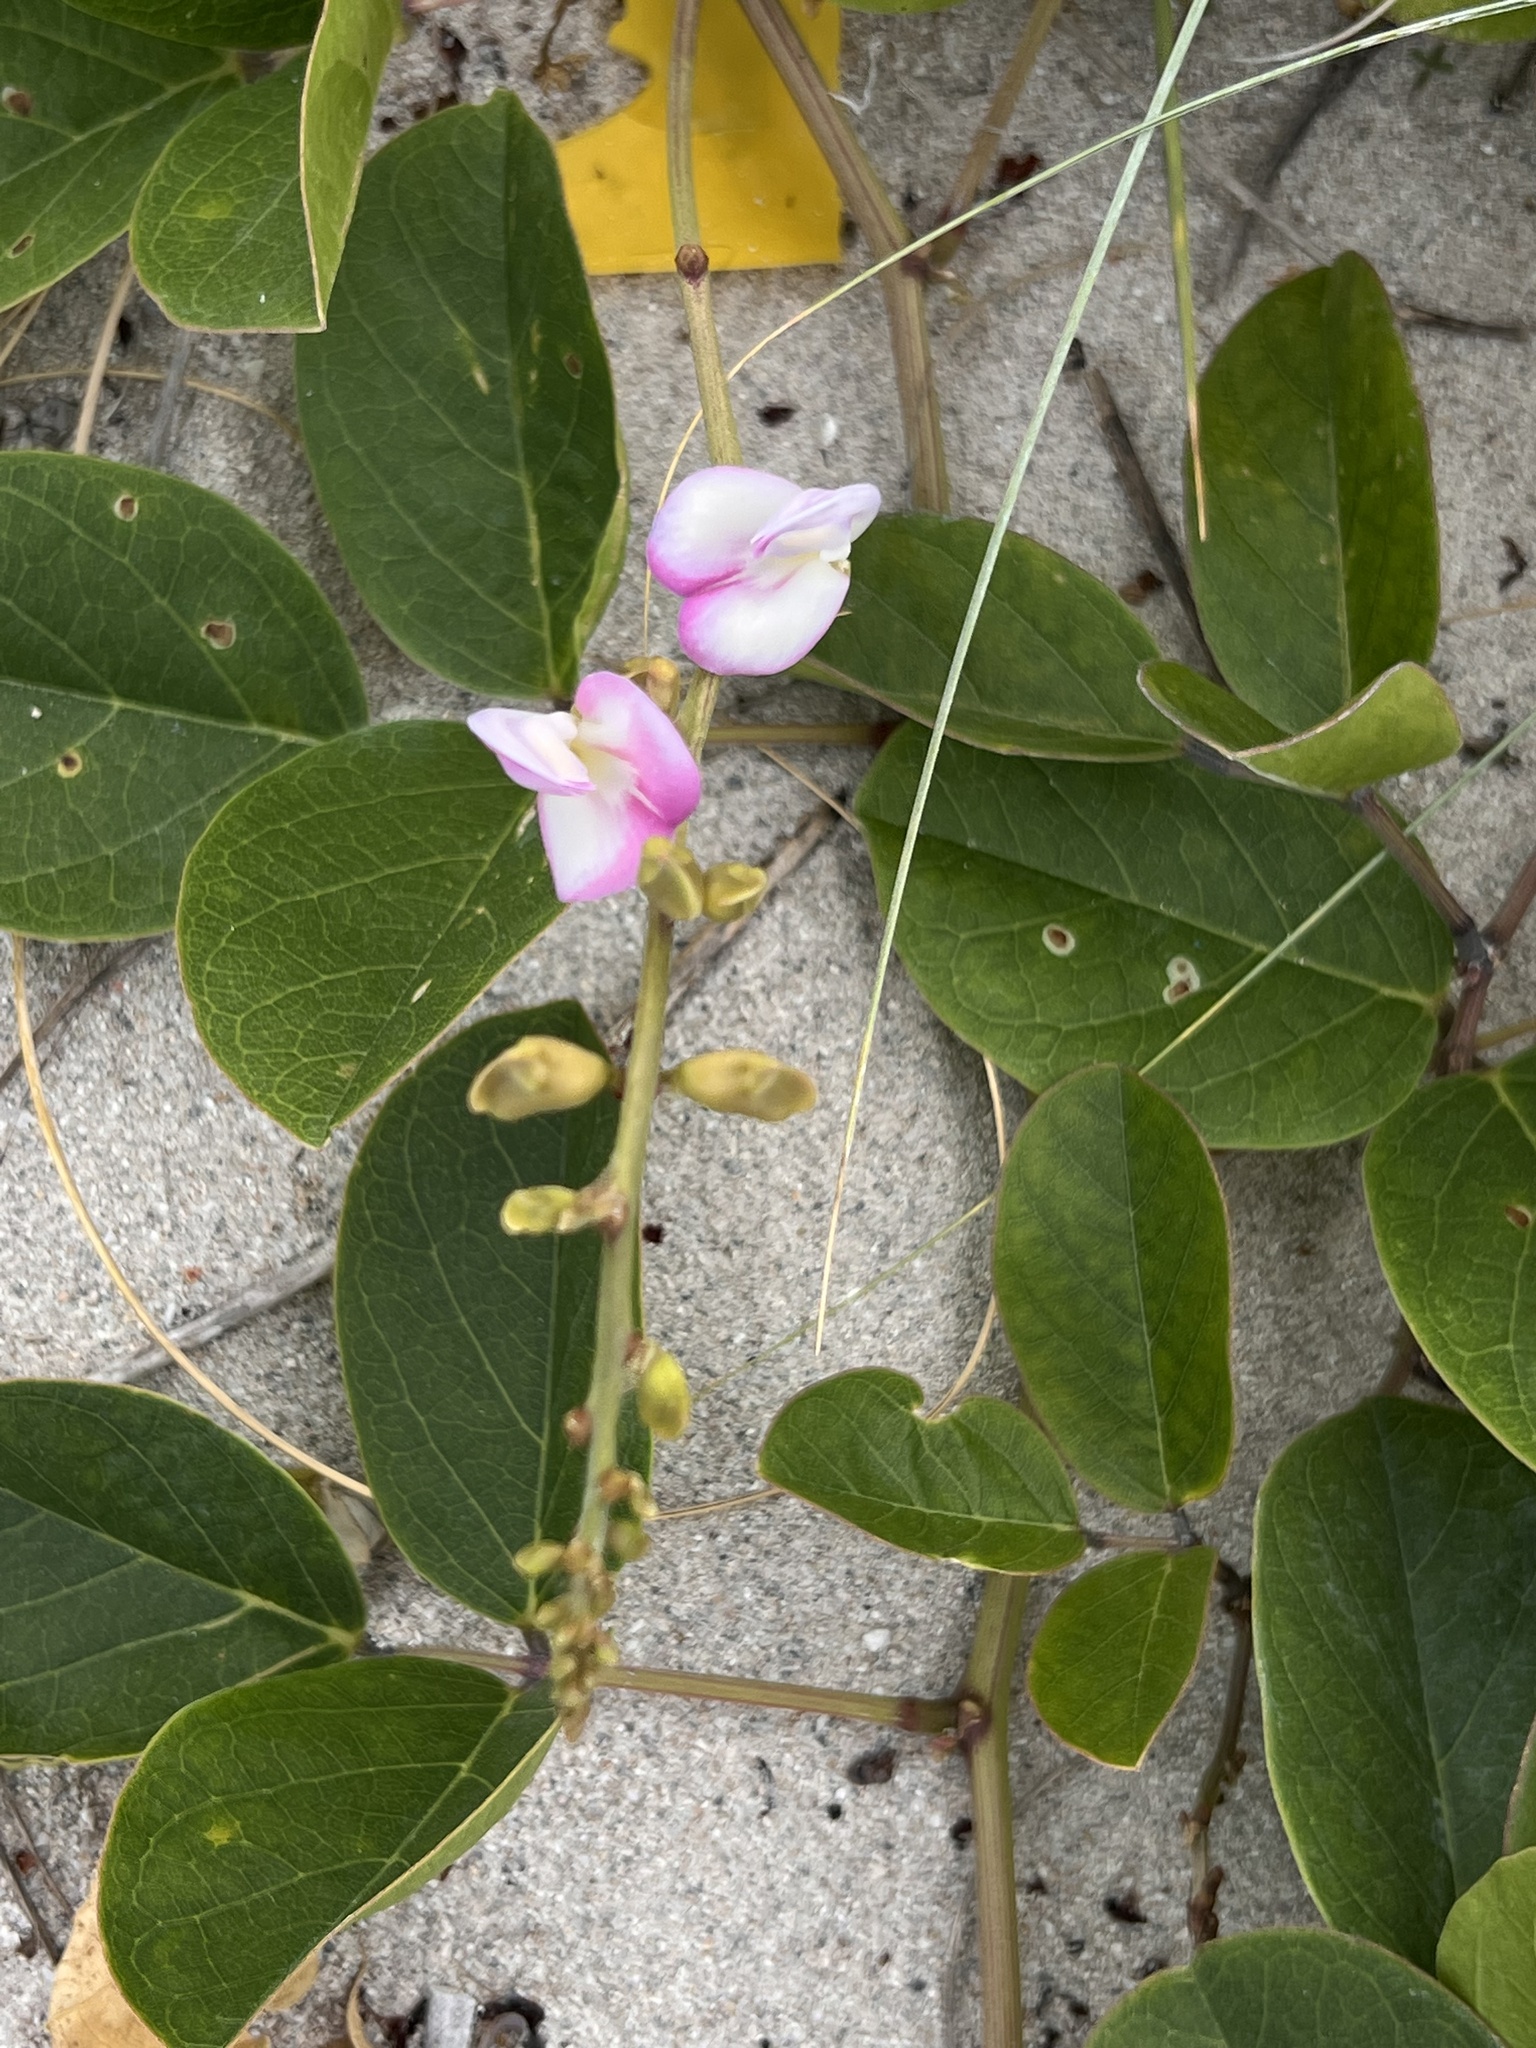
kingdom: Plantae
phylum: Tracheophyta
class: Magnoliopsida
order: Fabales
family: Fabaceae
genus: Canavalia
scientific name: Canavalia rosea
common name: Beach-bean
